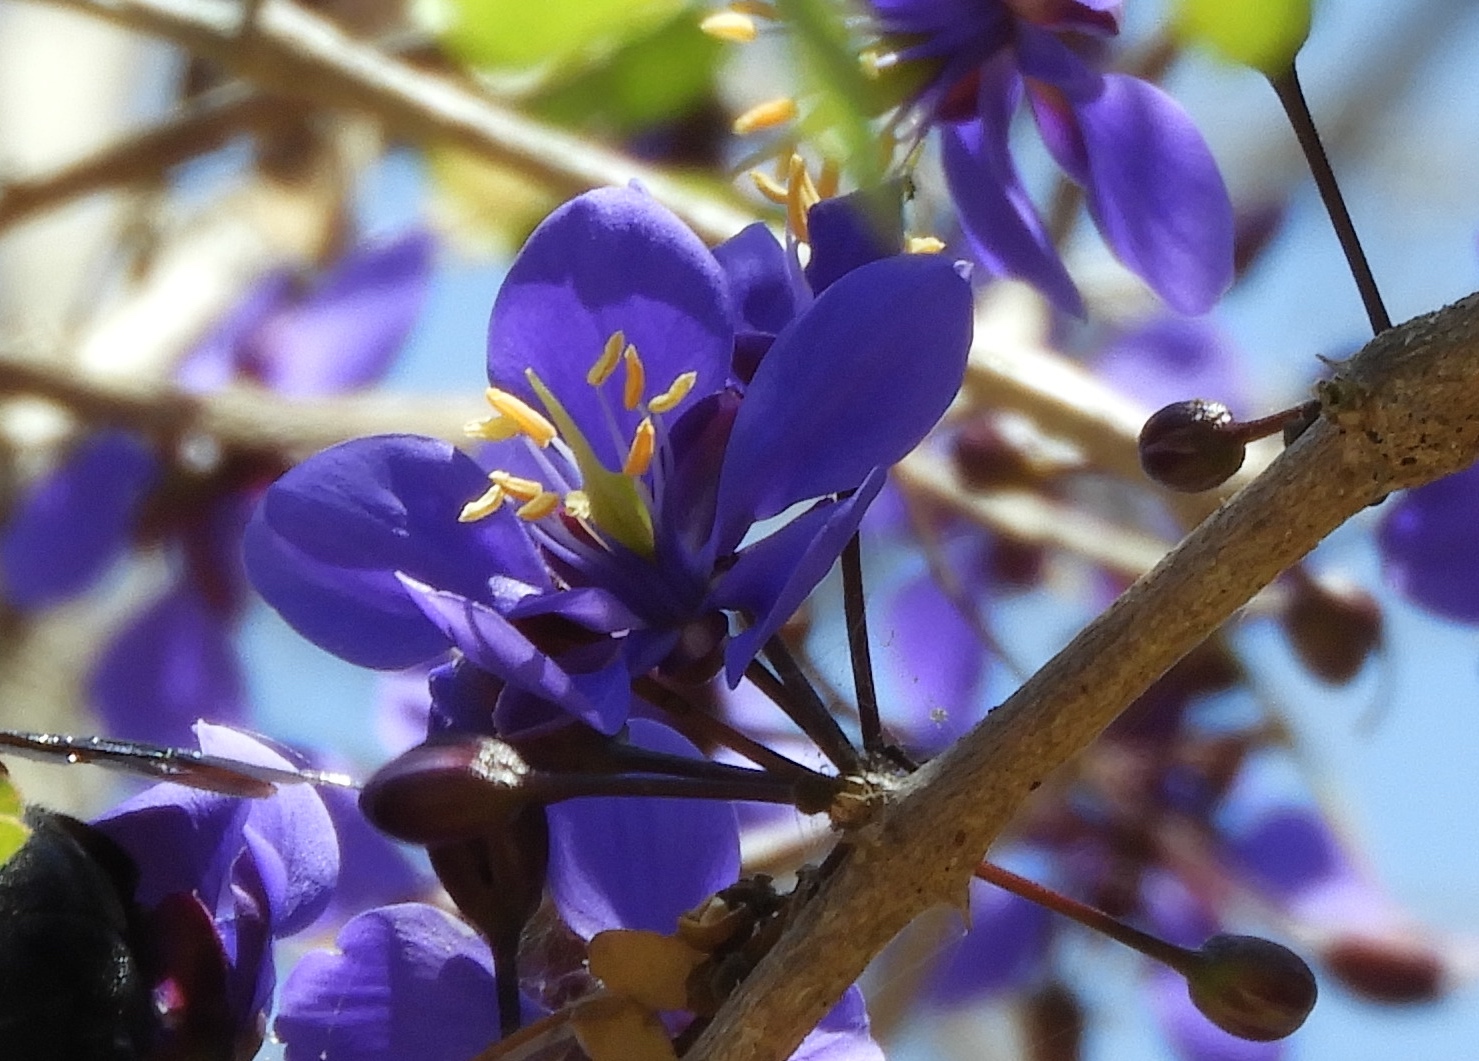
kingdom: Plantae
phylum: Tracheophyta
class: Magnoliopsida
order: Zygophyllales
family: Zygophyllaceae
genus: Guaiacum
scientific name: Guaiacum coulteri
